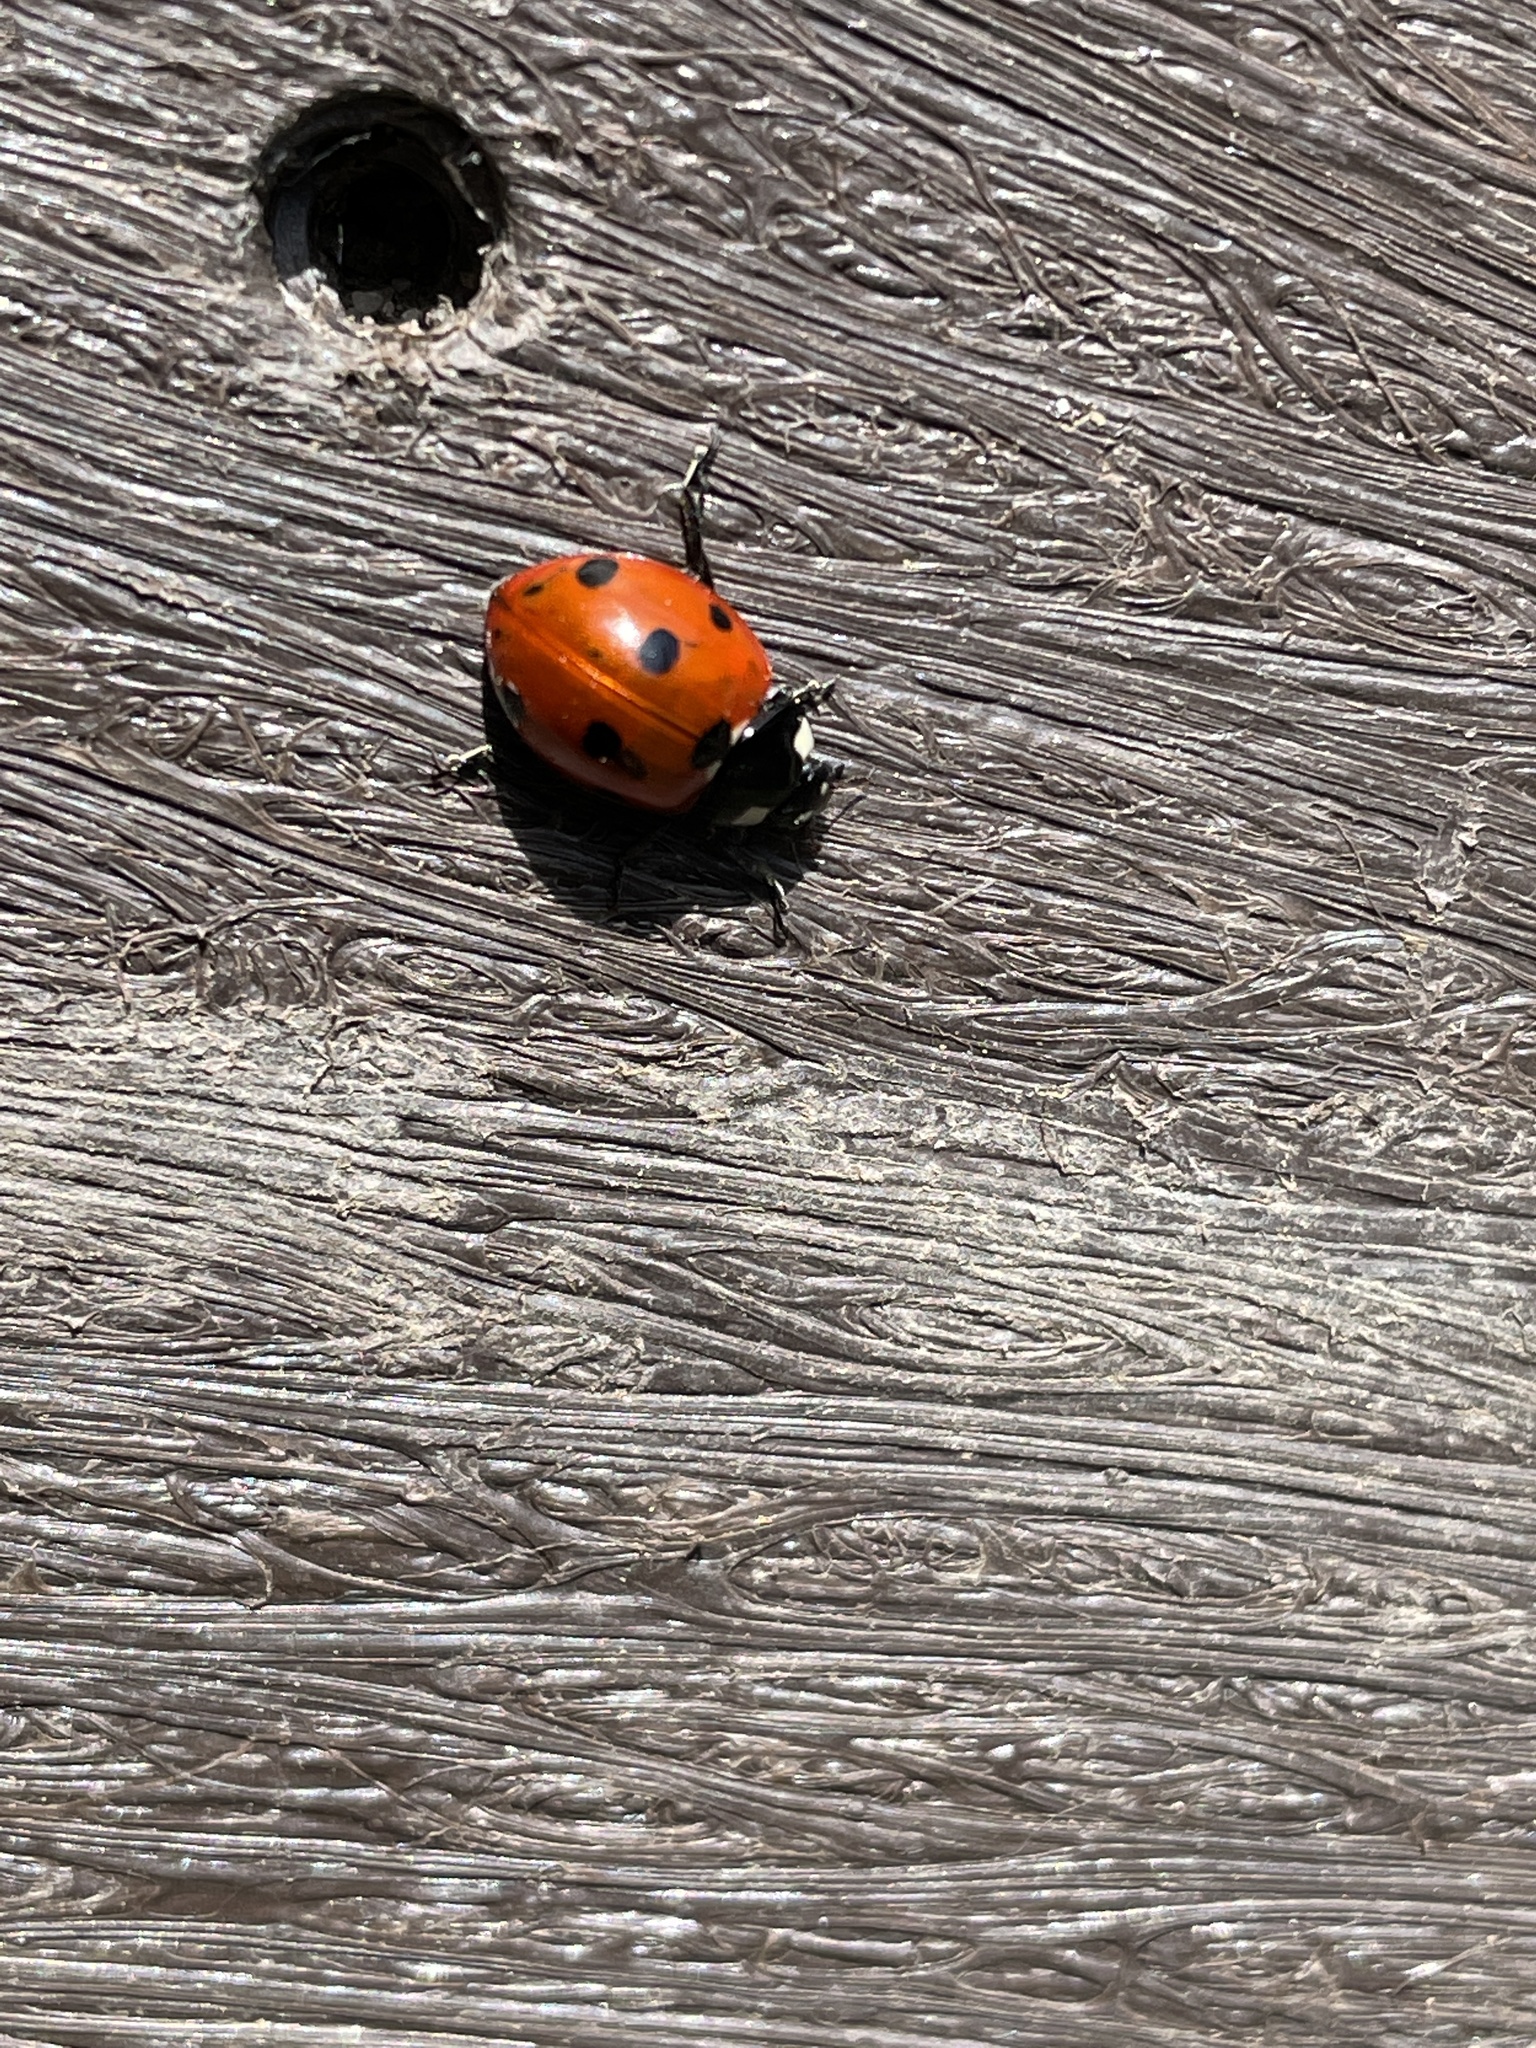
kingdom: Animalia
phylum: Arthropoda
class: Insecta
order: Coleoptera
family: Coccinellidae
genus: Coccinella
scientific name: Coccinella septempunctata
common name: Sevenspotted lady beetle
